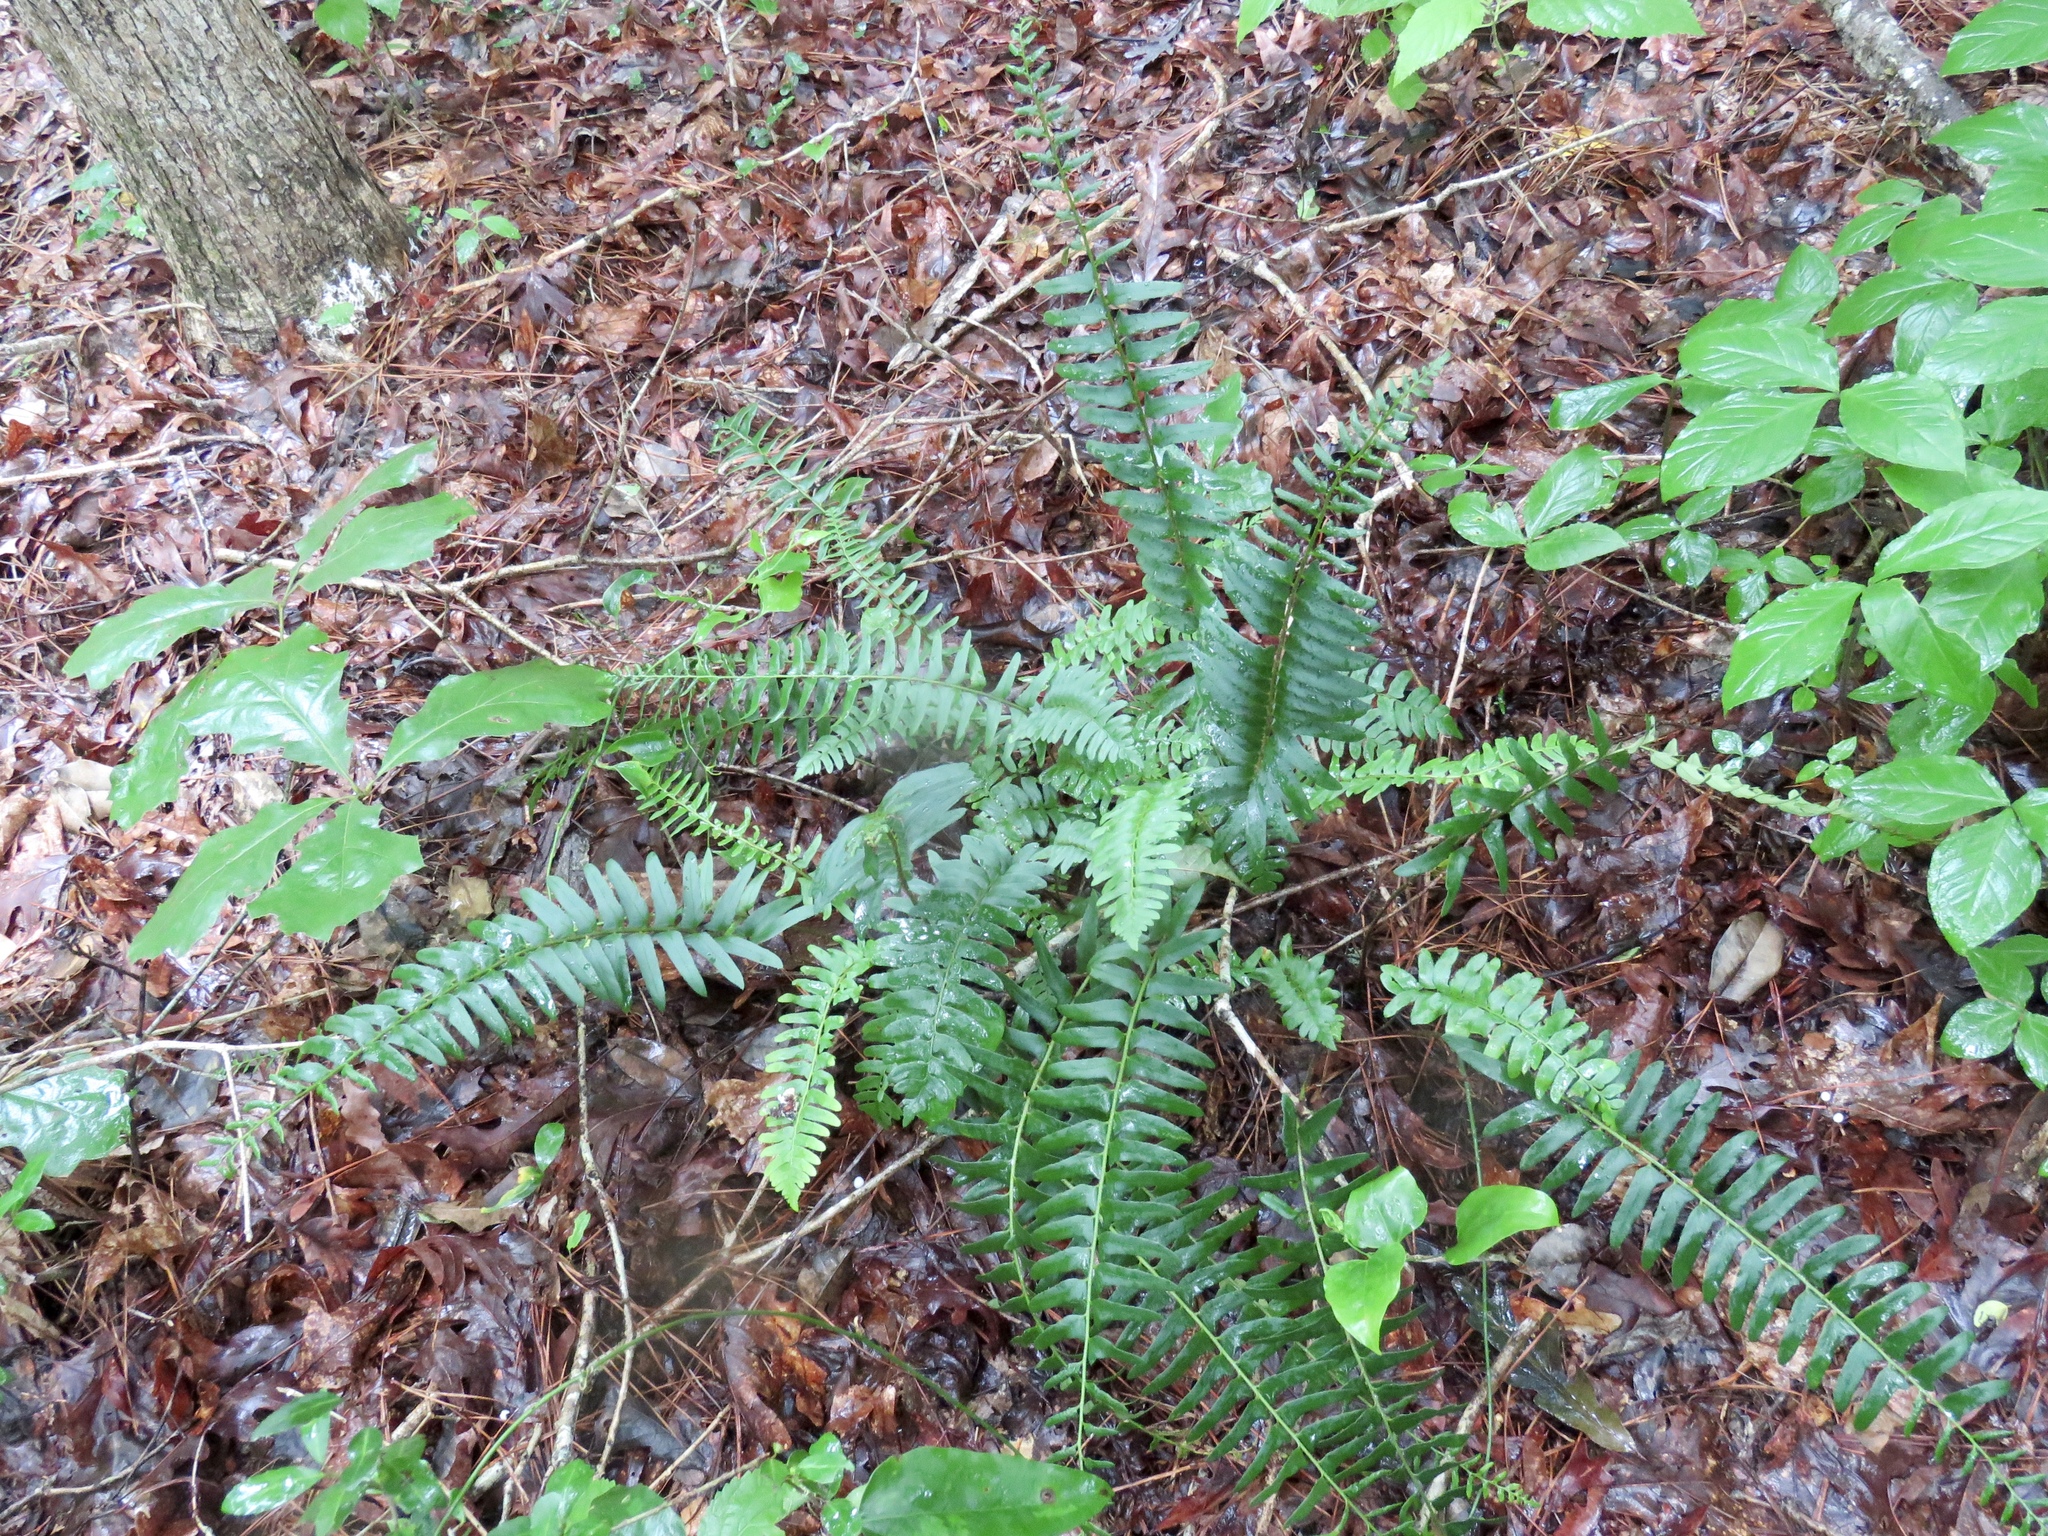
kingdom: Plantae
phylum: Tracheophyta
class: Polypodiopsida
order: Polypodiales
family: Dryopteridaceae
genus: Polystichum
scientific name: Polystichum acrostichoides
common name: Christmas fern
